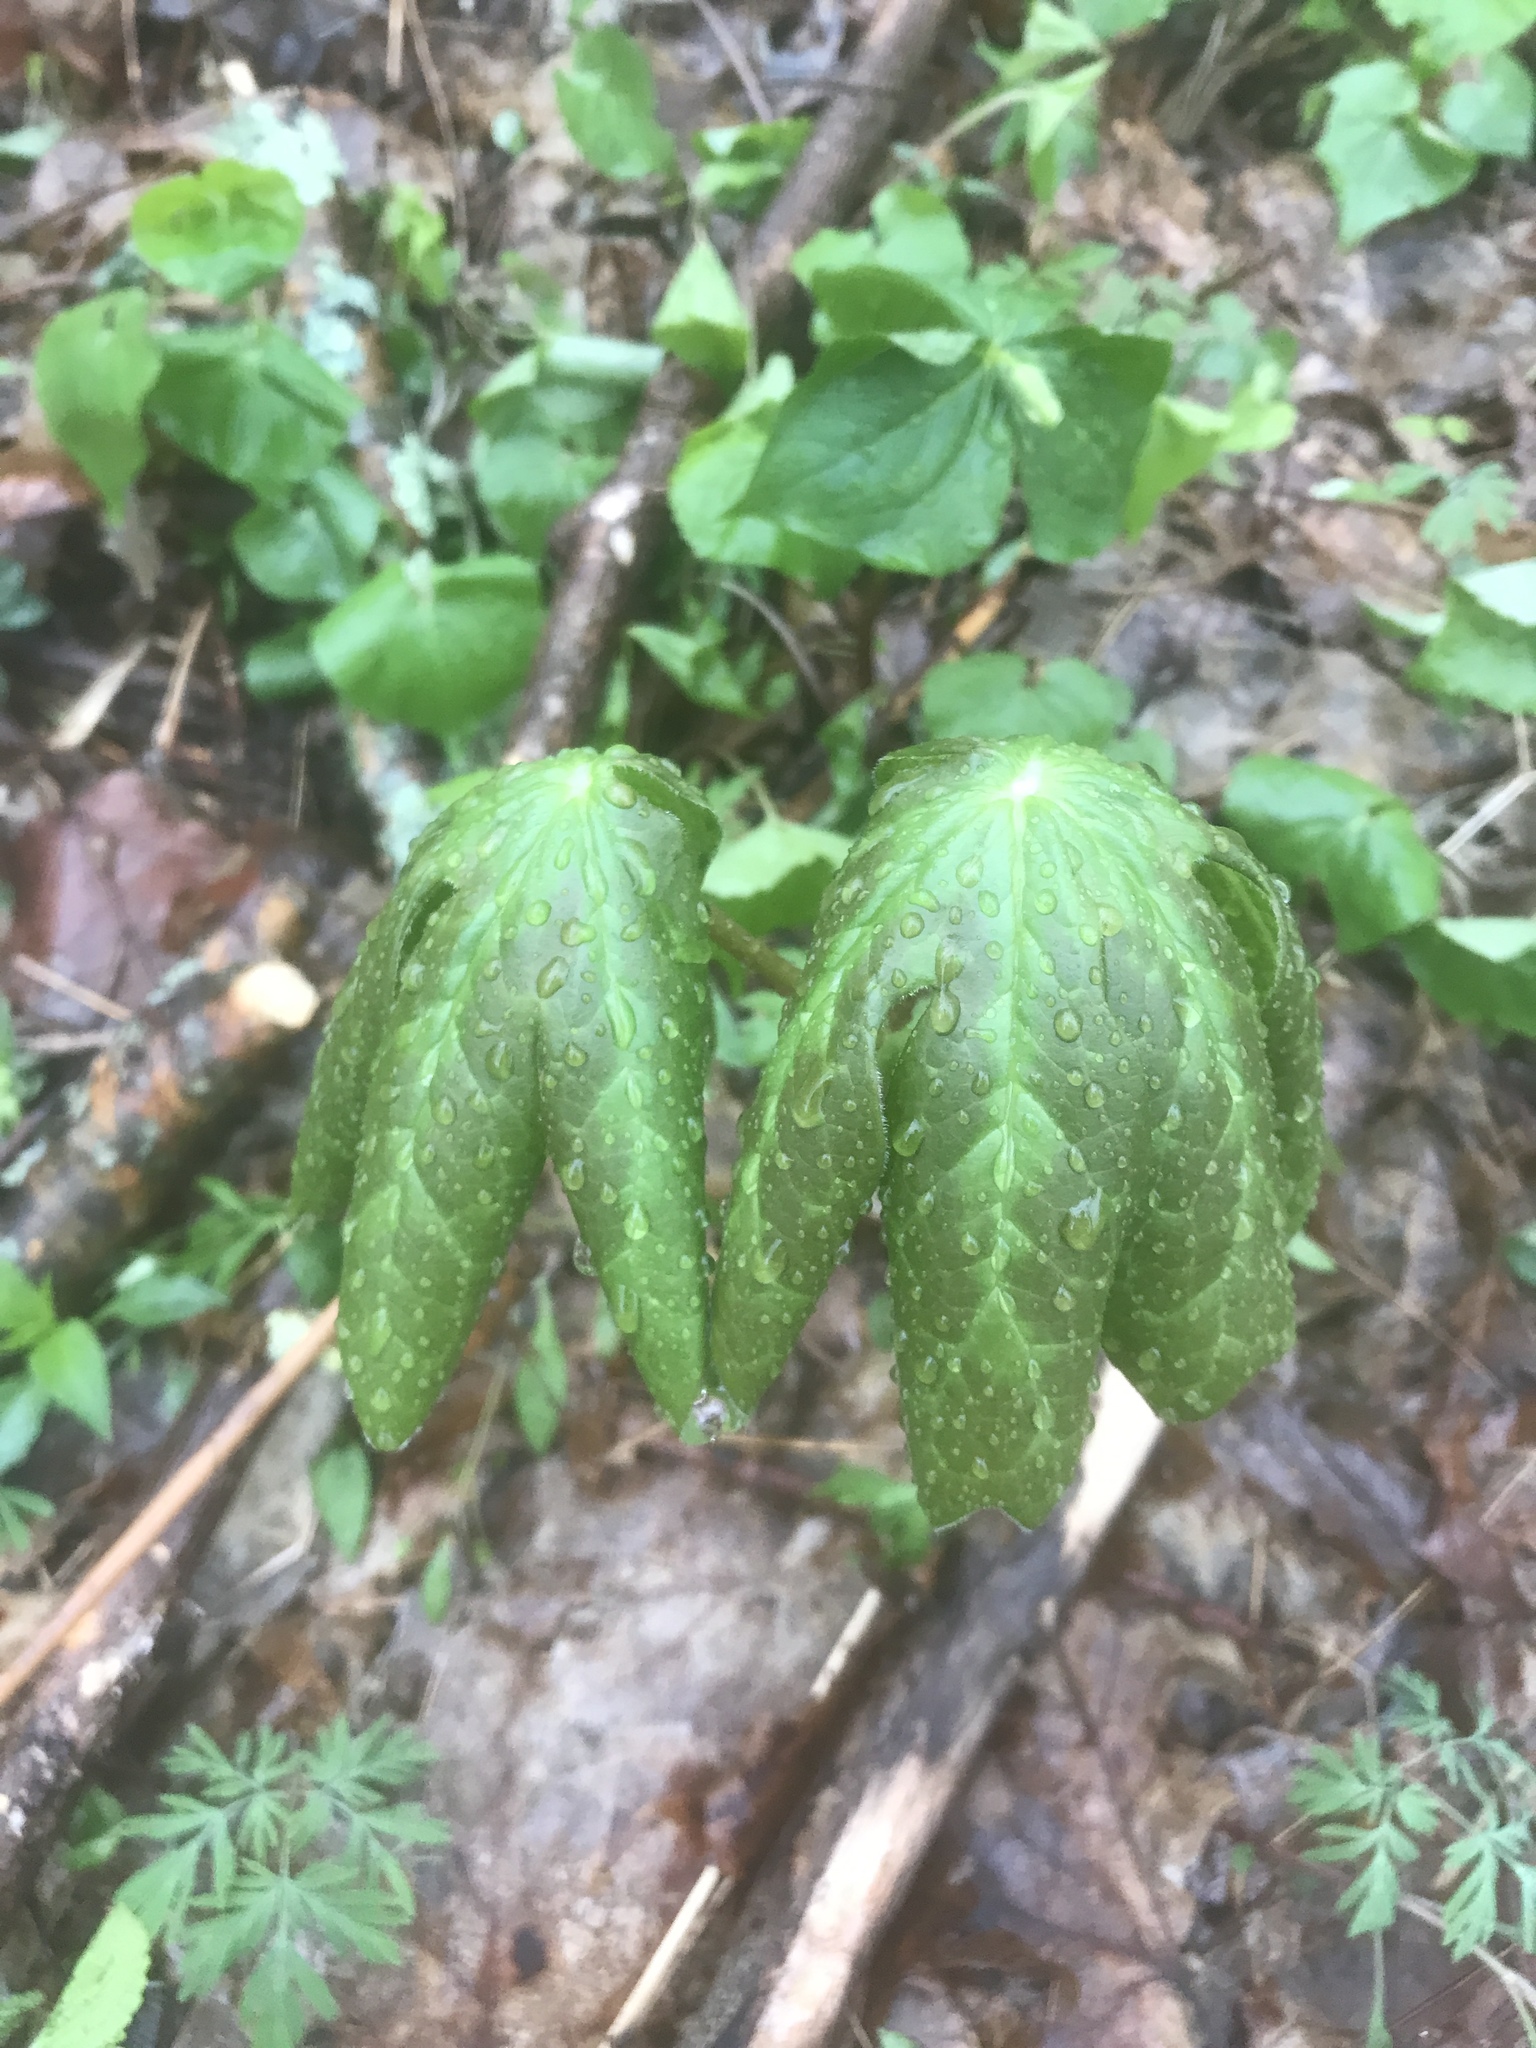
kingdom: Plantae
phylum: Tracheophyta
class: Magnoliopsida
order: Ranunculales
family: Berberidaceae
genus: Podophyllum
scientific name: Podophyllum peltatum
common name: Wild mandrake
